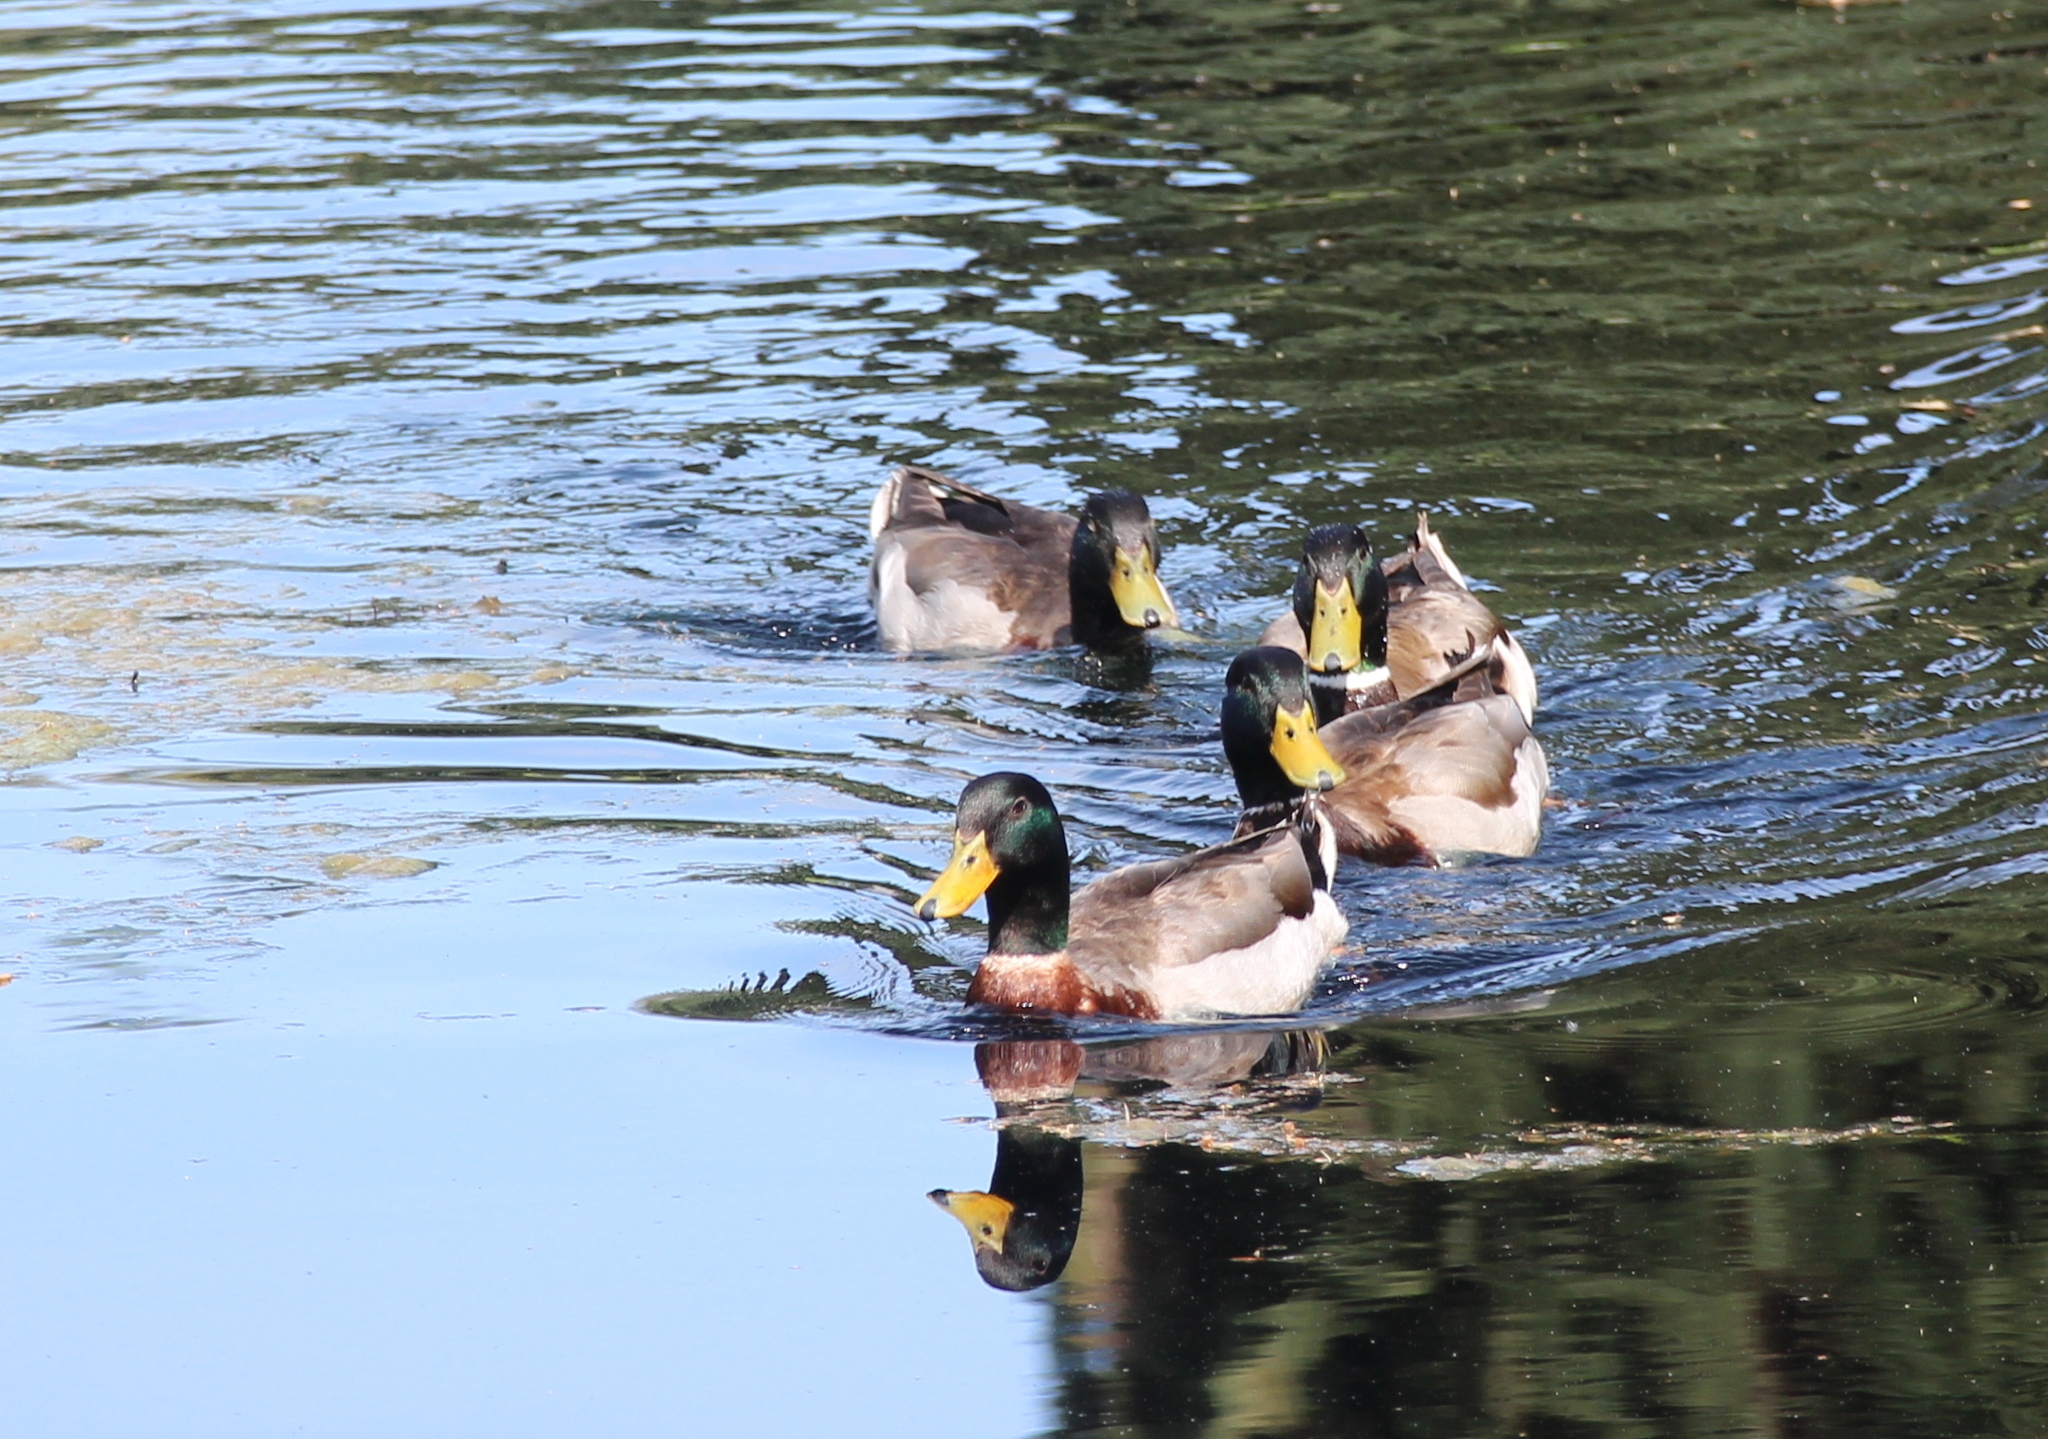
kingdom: Animalia
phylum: Chordata
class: Aves
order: Anseriformes
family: Anatidae
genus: Anas
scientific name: Anas platyrhynchos
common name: Mallard
